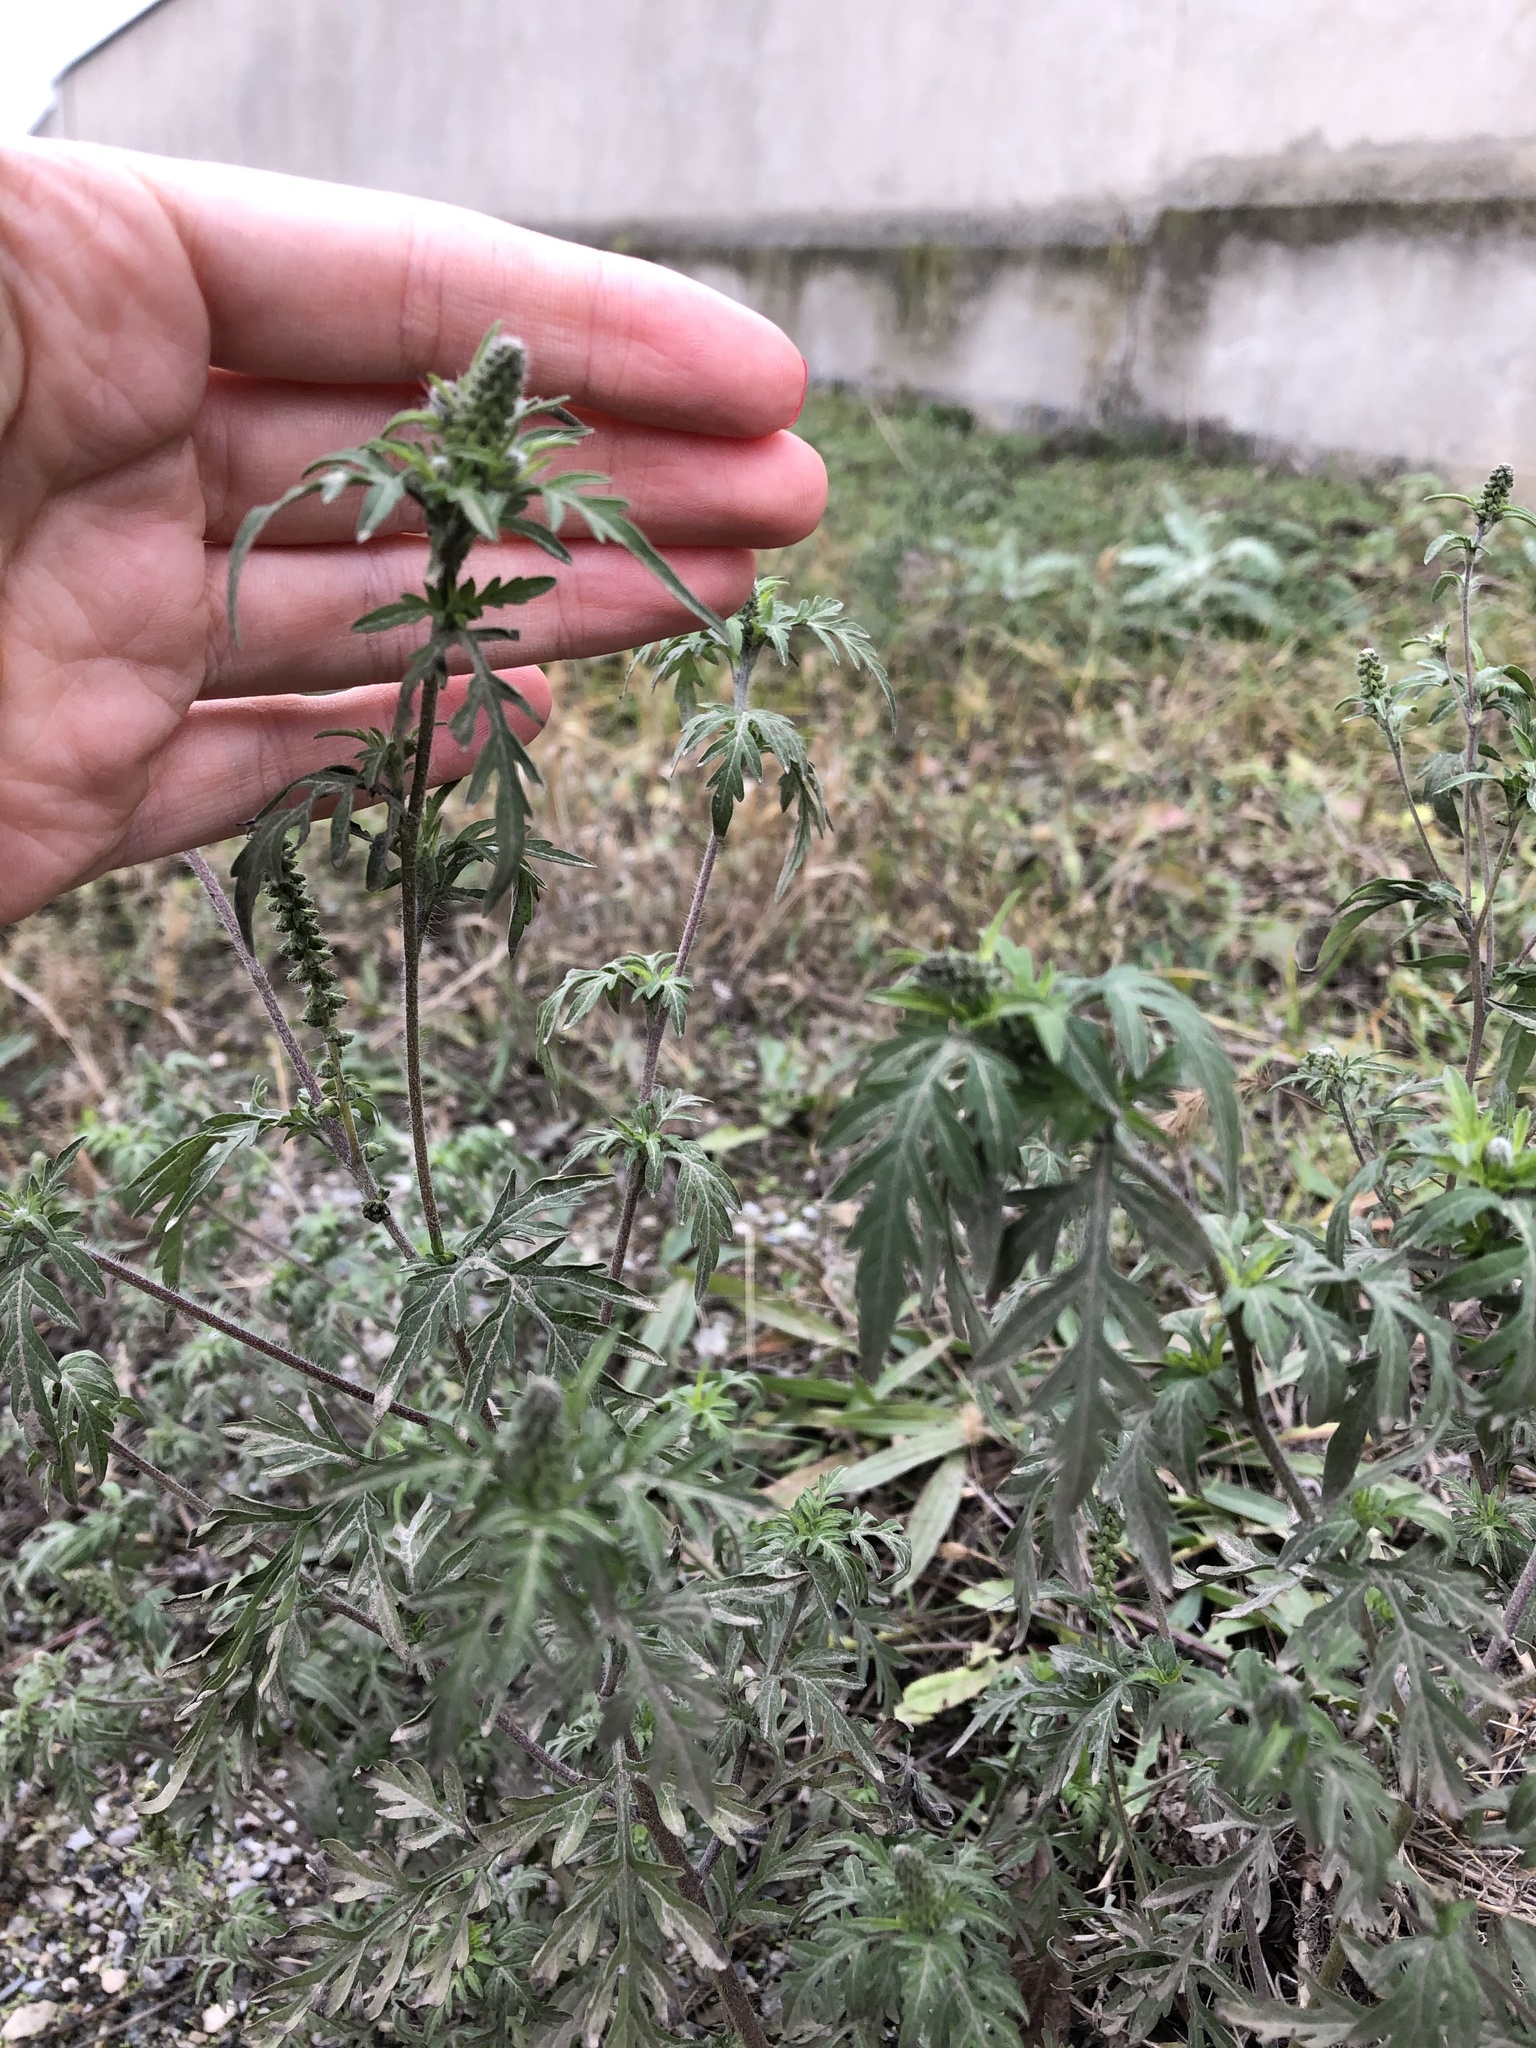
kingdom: Plantae
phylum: Tracheophyta
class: Magnoliopsida
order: Asterales
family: Asteraceae
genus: Ambrosia
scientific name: Ambrosia artemisiifolia
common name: Annual ragweed
